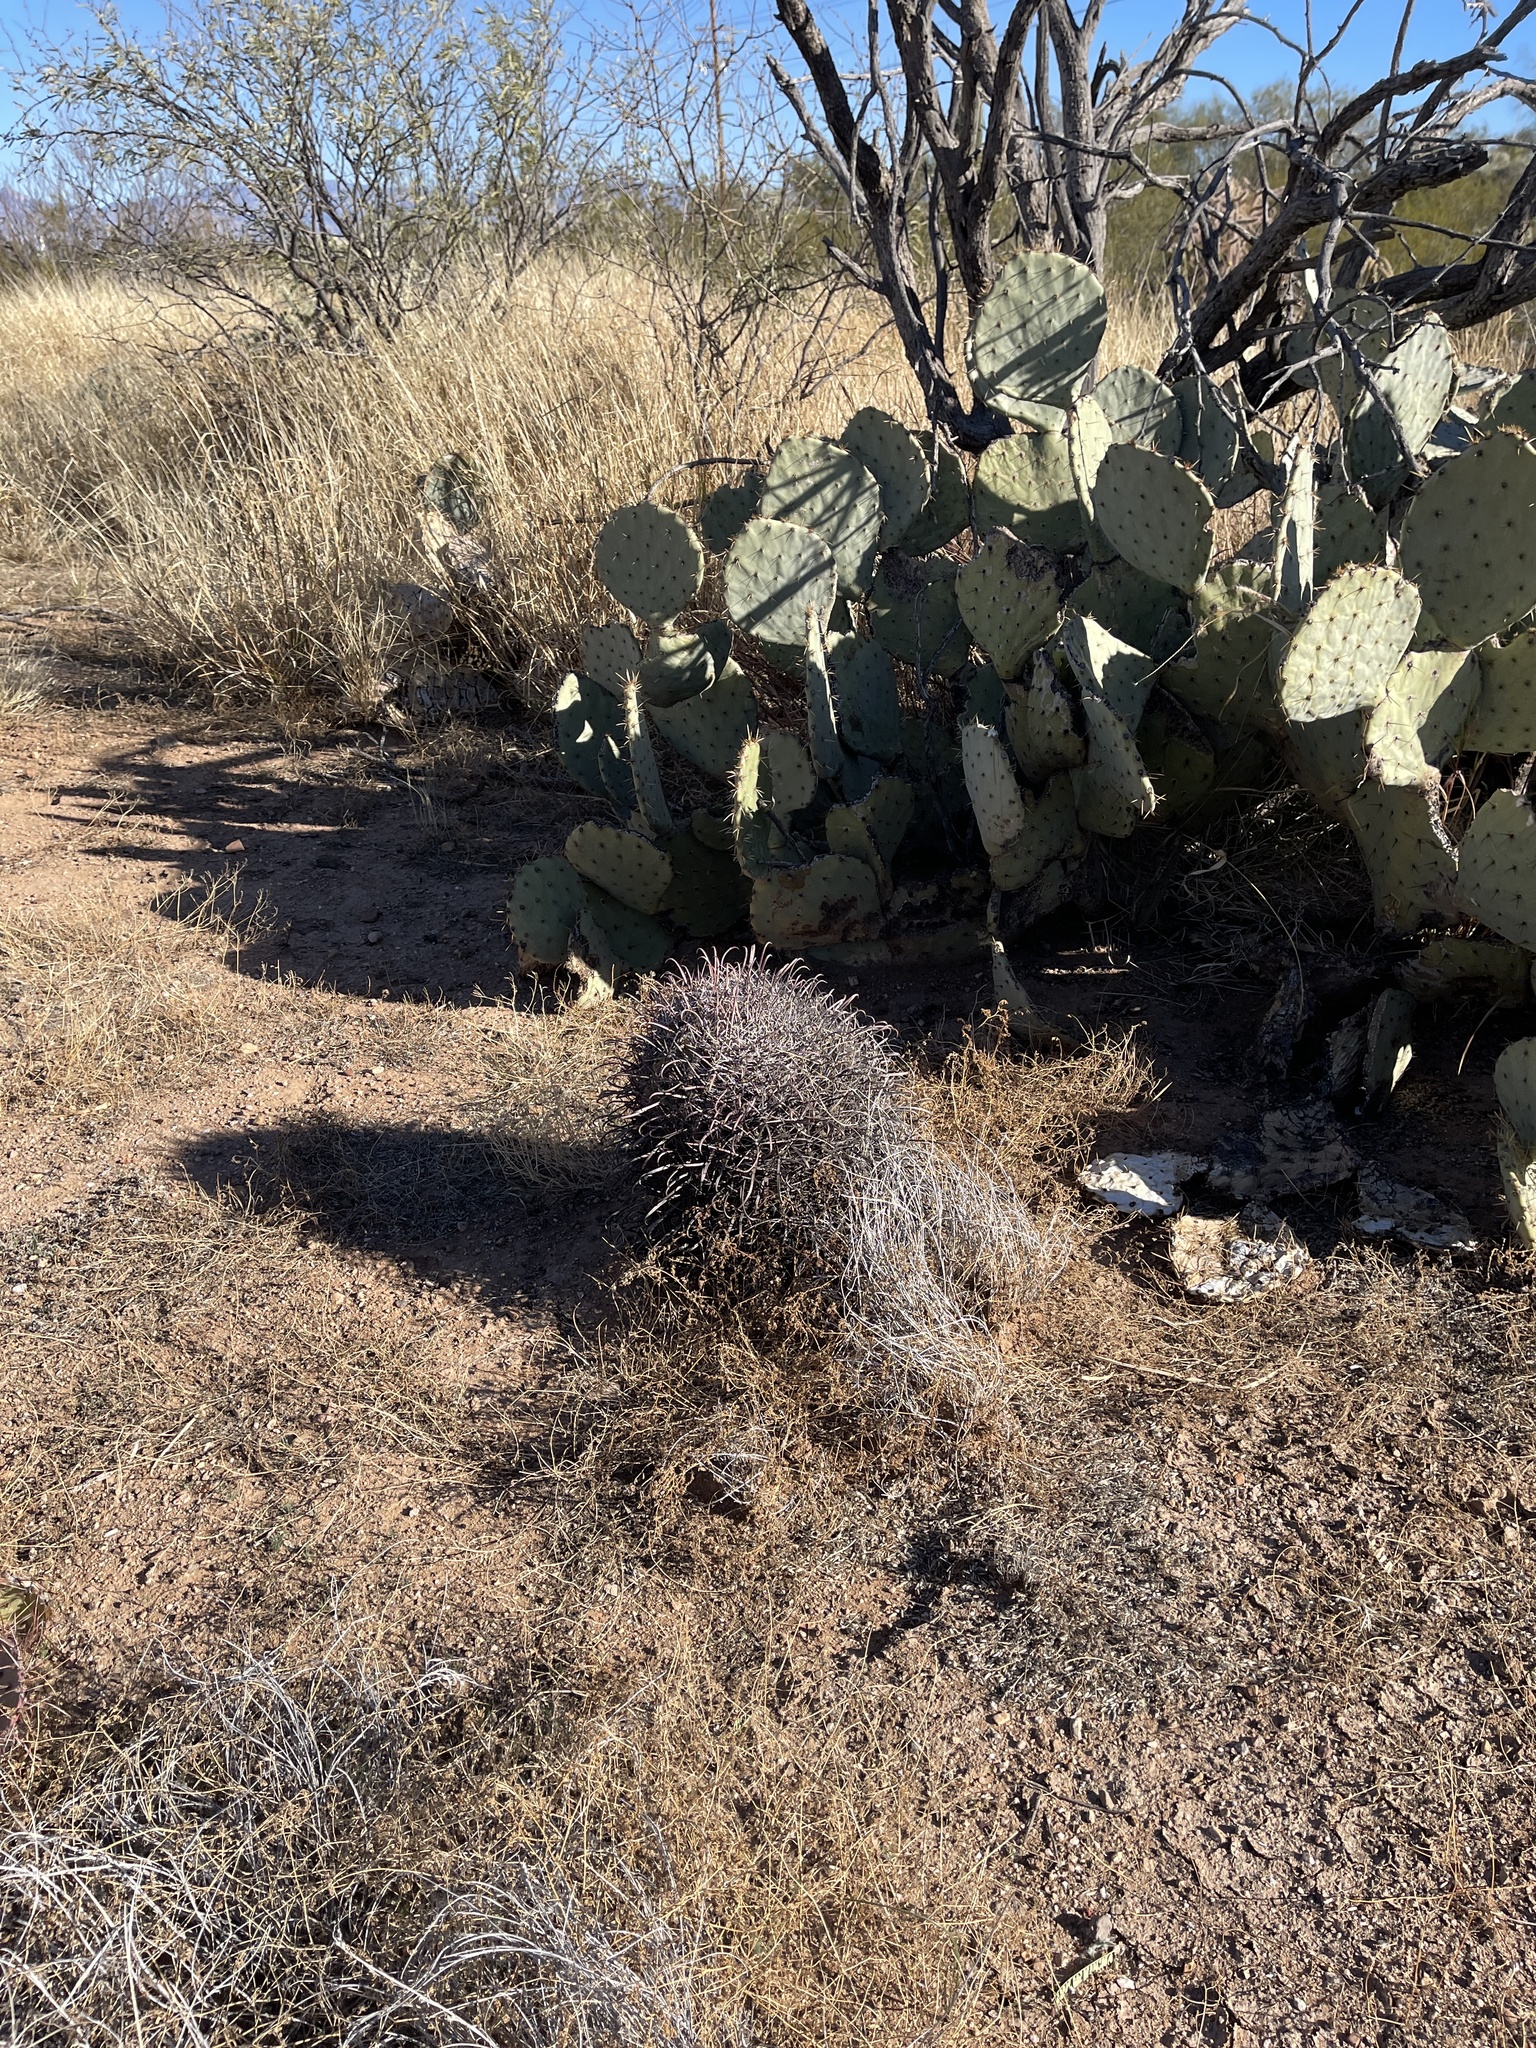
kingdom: Plantae
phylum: Tracheophyta
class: Magnoliopsida
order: Caryophyllales
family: Cactaceae
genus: Ferocactus
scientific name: Ferocactus wislizeni
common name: Candy barrel cactus
